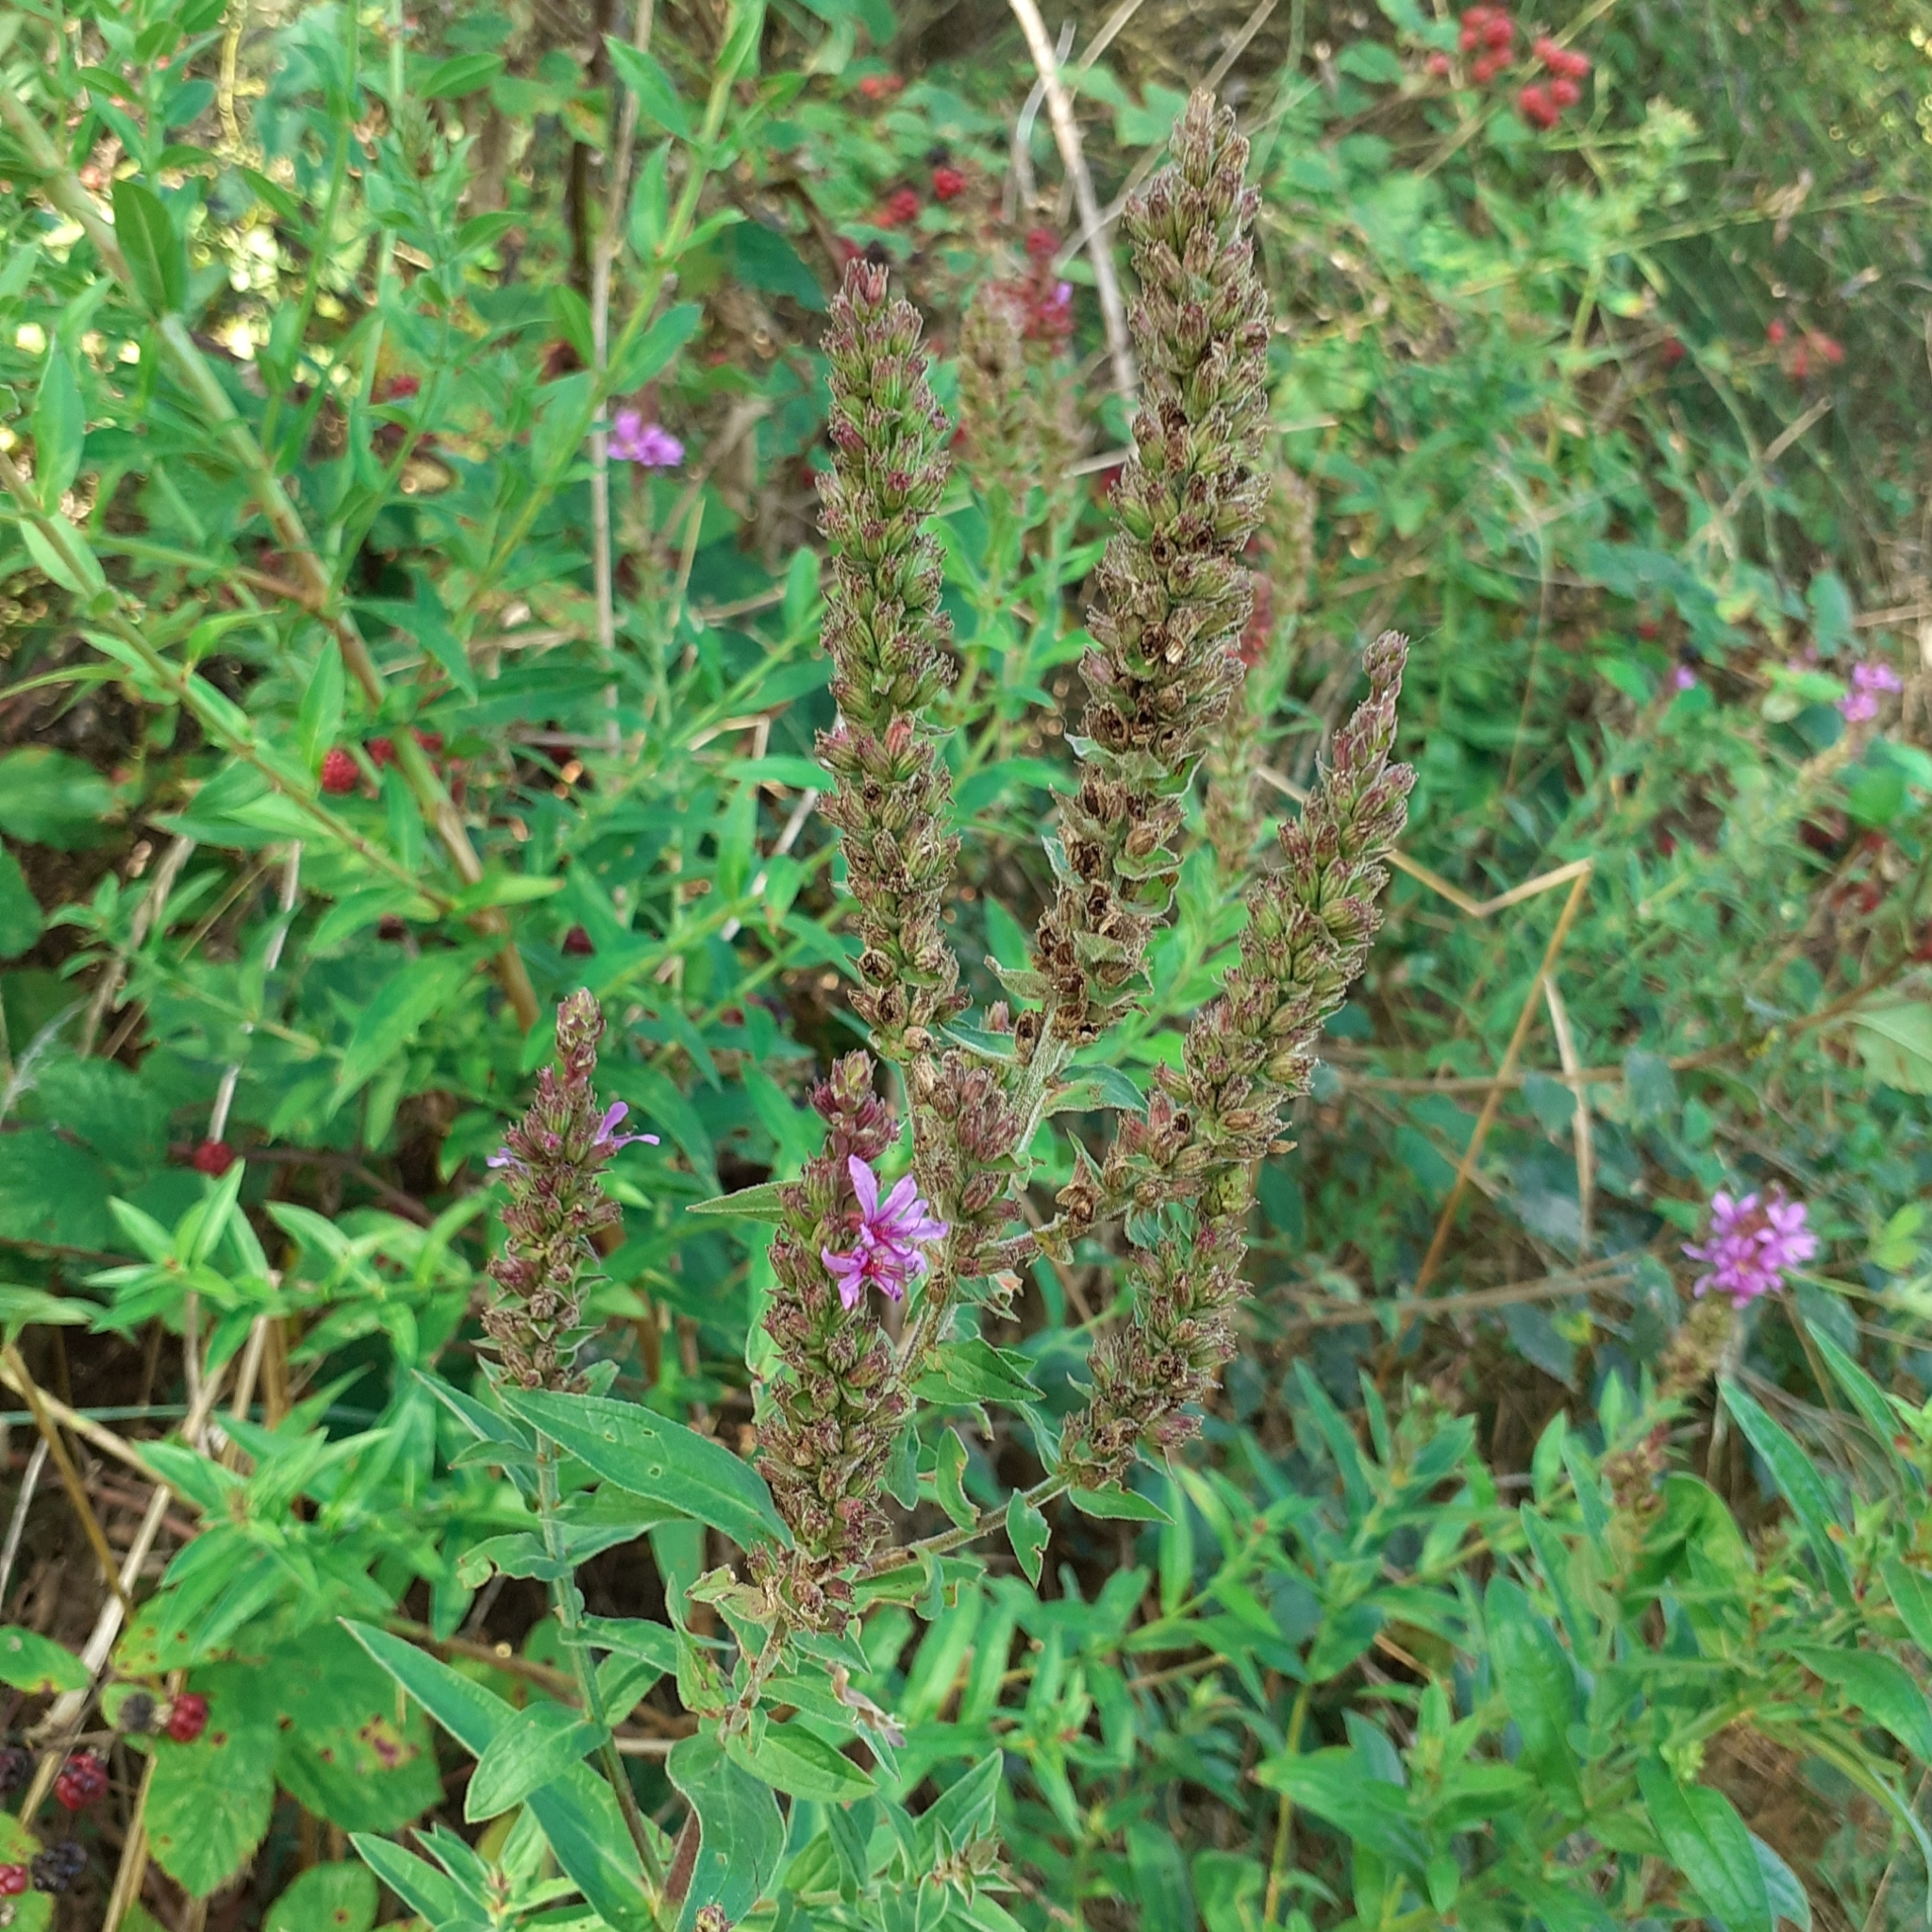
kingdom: Plantae
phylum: Tracheophyta
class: Magnoliopsida
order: Myrtales
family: Lythraceae
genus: Lythrum
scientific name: Lythrum salicaria
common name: Purple loosestrife
